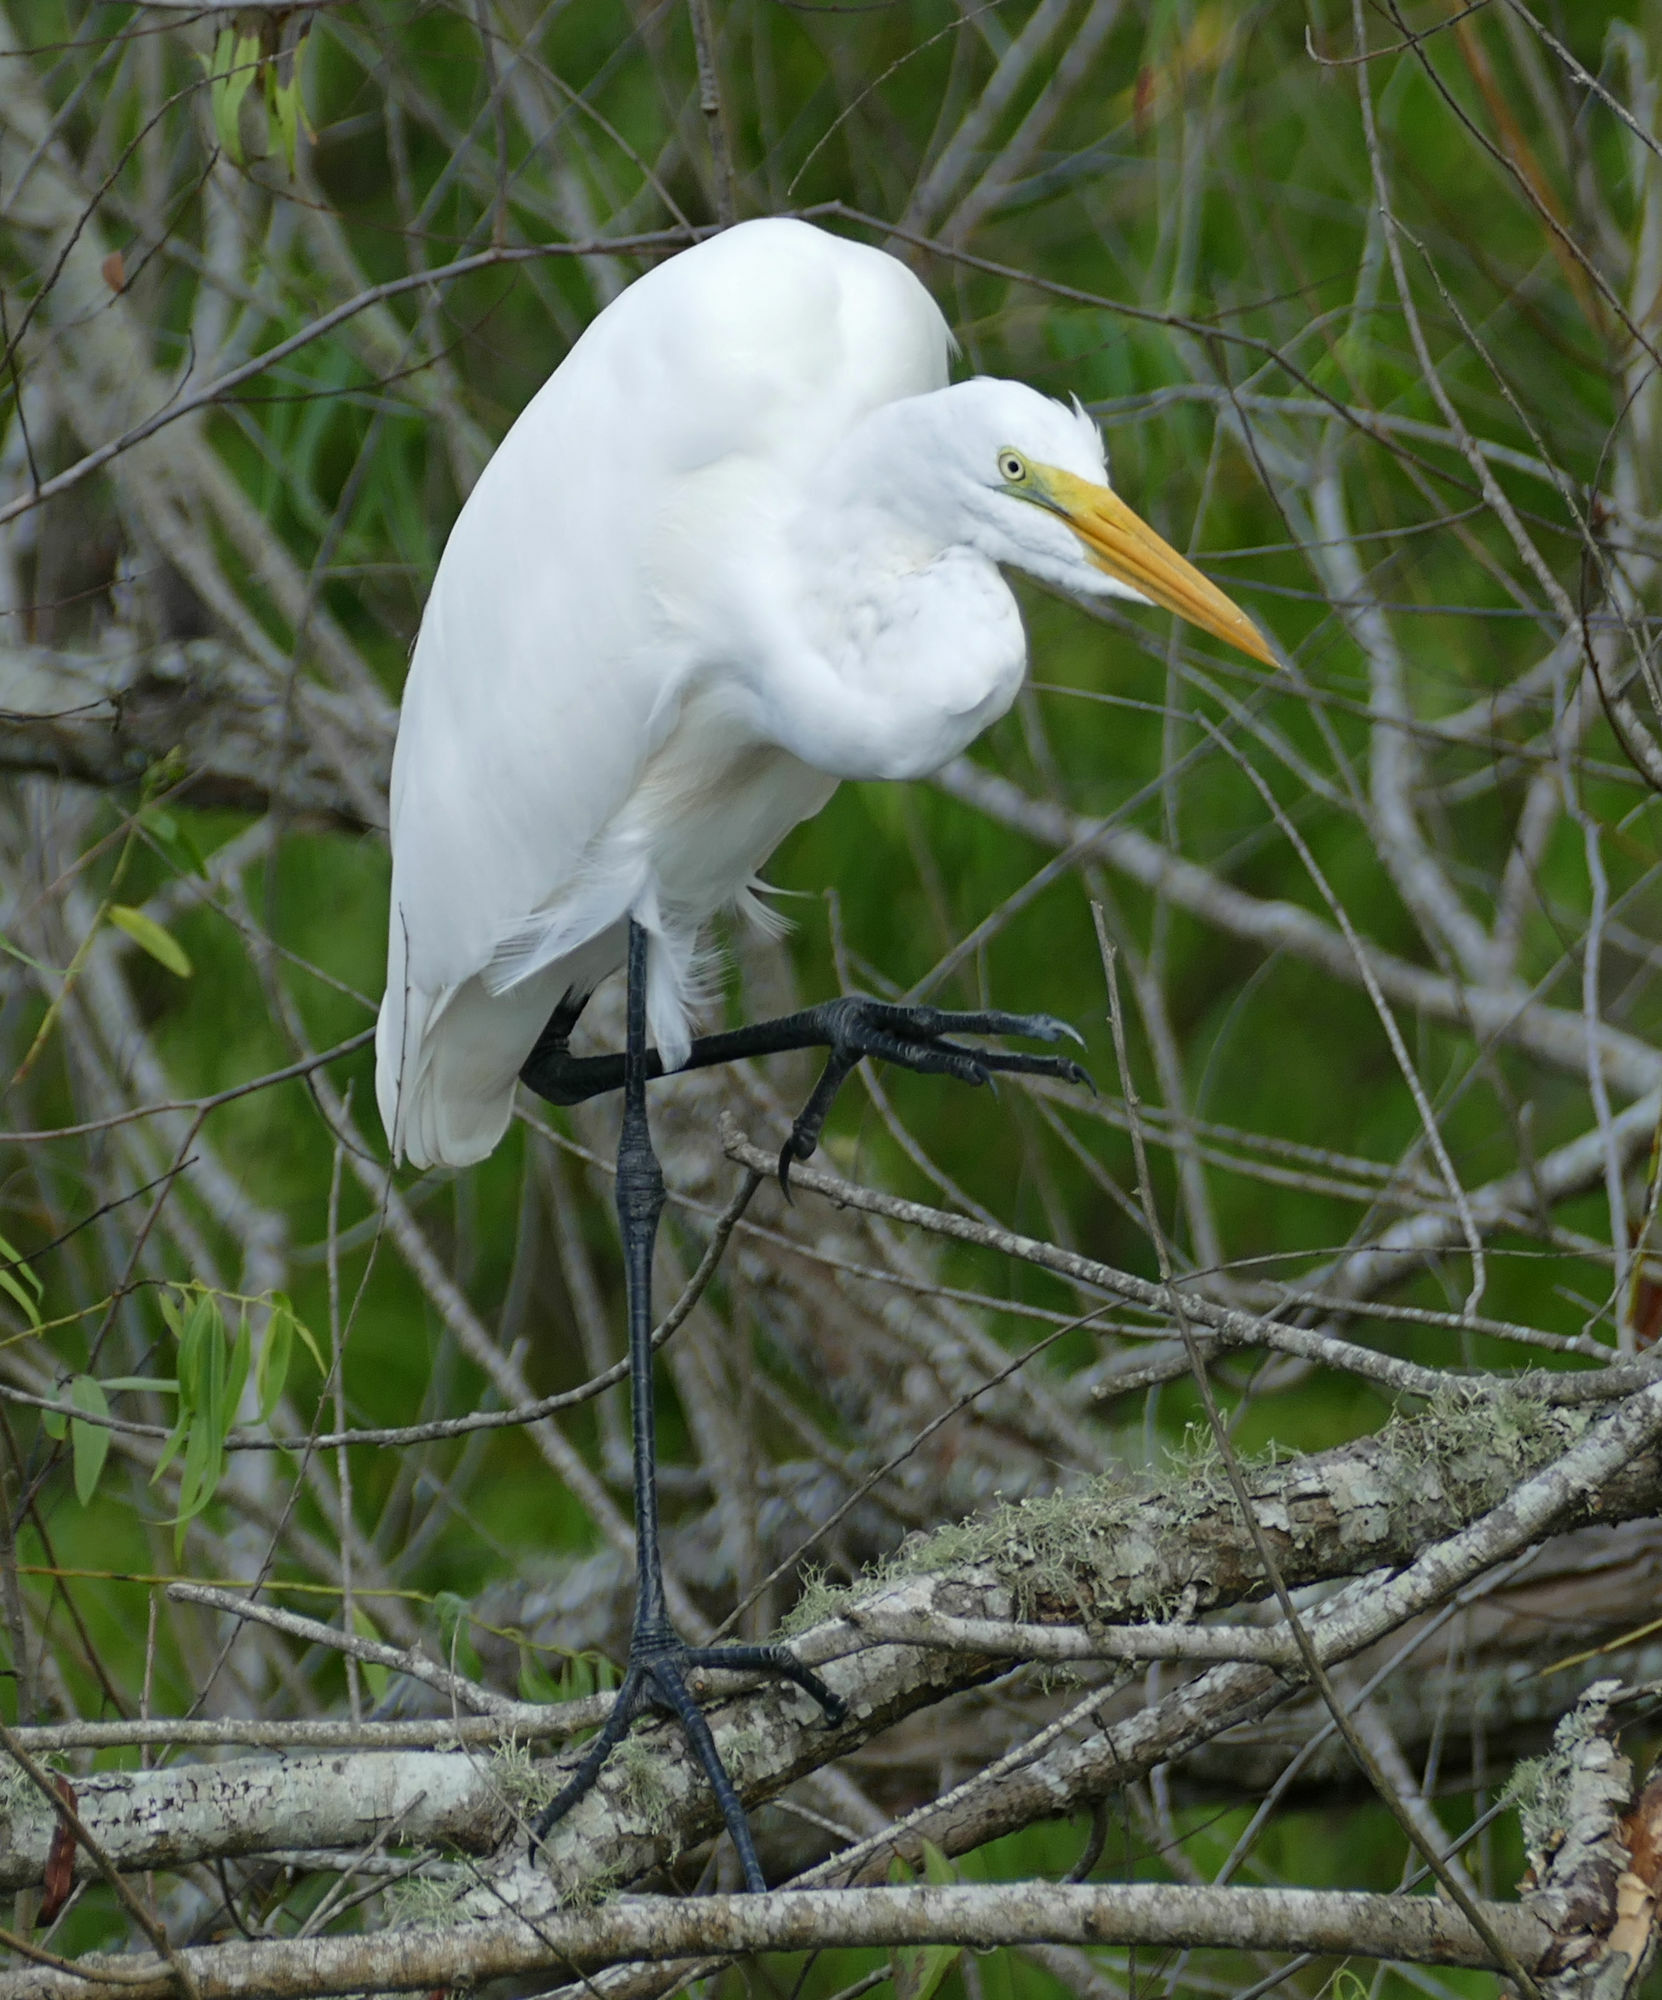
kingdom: Animalia
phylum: Chordata
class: Aves
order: Pelecaniformes
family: Ardeidae
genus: Ardea
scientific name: Ardea alba
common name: Great egret
